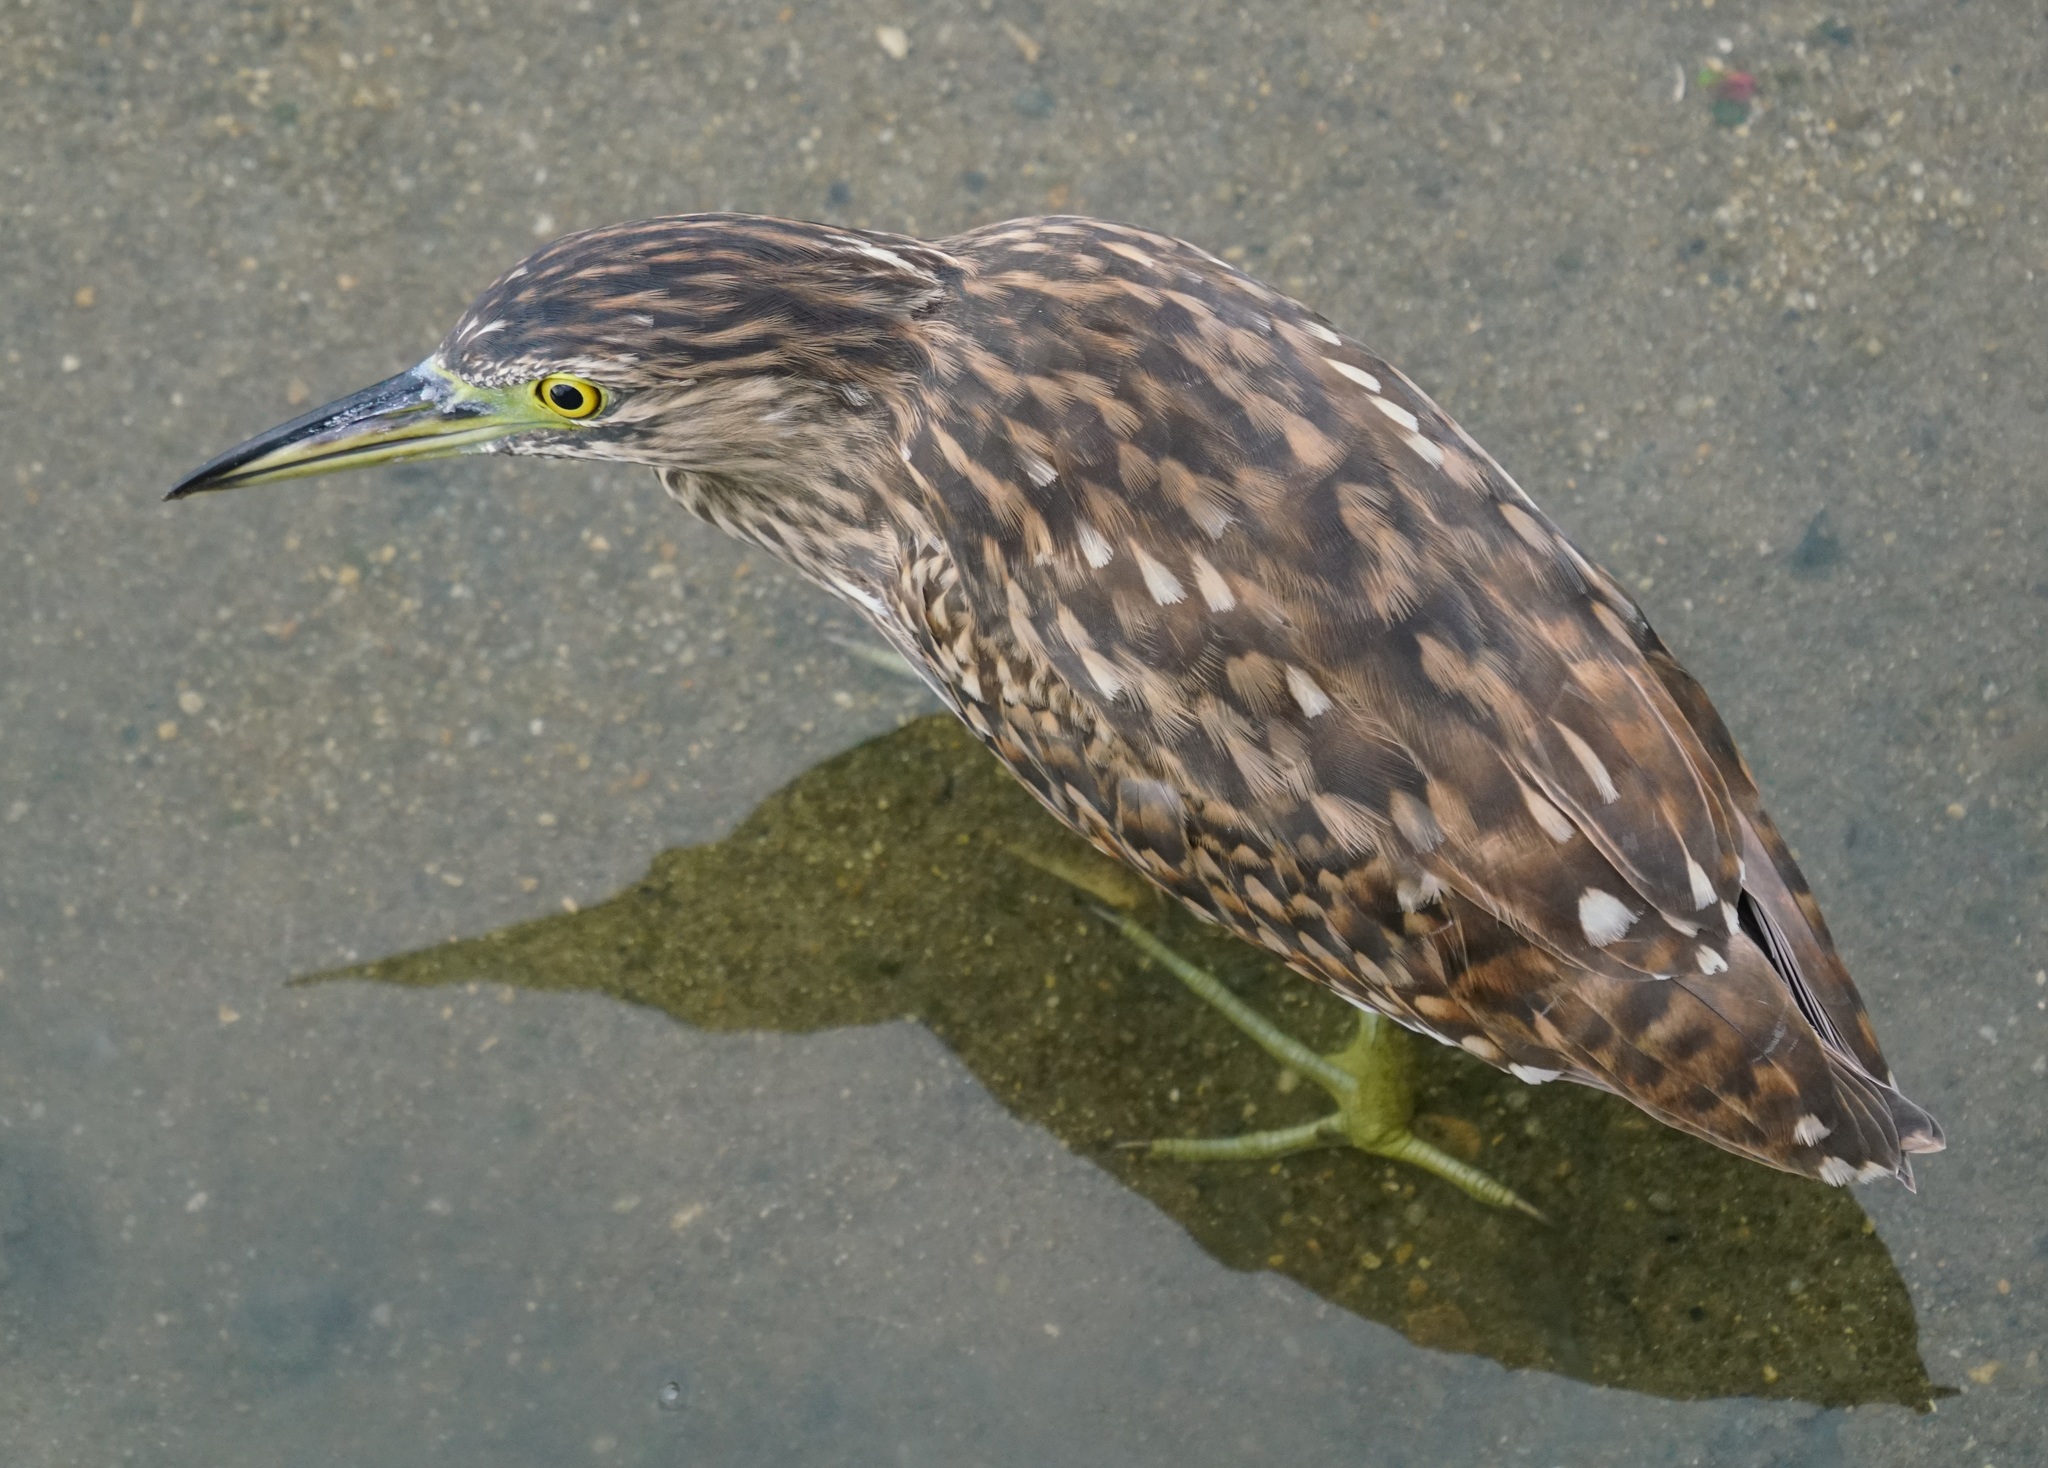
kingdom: Animalia
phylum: Chordata
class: Aves
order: Pelecaniformes
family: Ardeidae
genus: Nycticorax
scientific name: Nycticorax caledonicus
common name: Rufous night-heron
